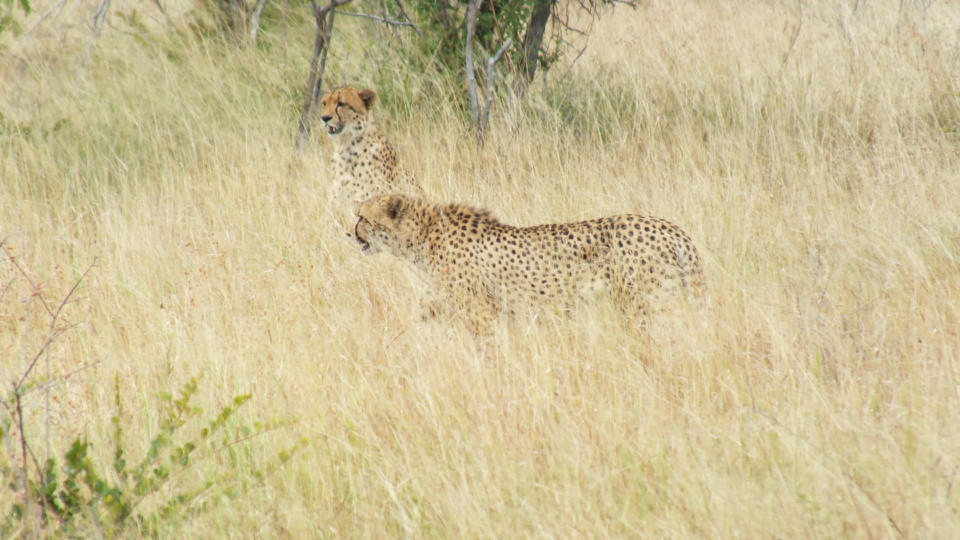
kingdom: Animalia
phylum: Chordata
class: Mammalia
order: Carnivora
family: Felidae
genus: Acinonyx
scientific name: Acinonyx jubatus
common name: Cheetah
